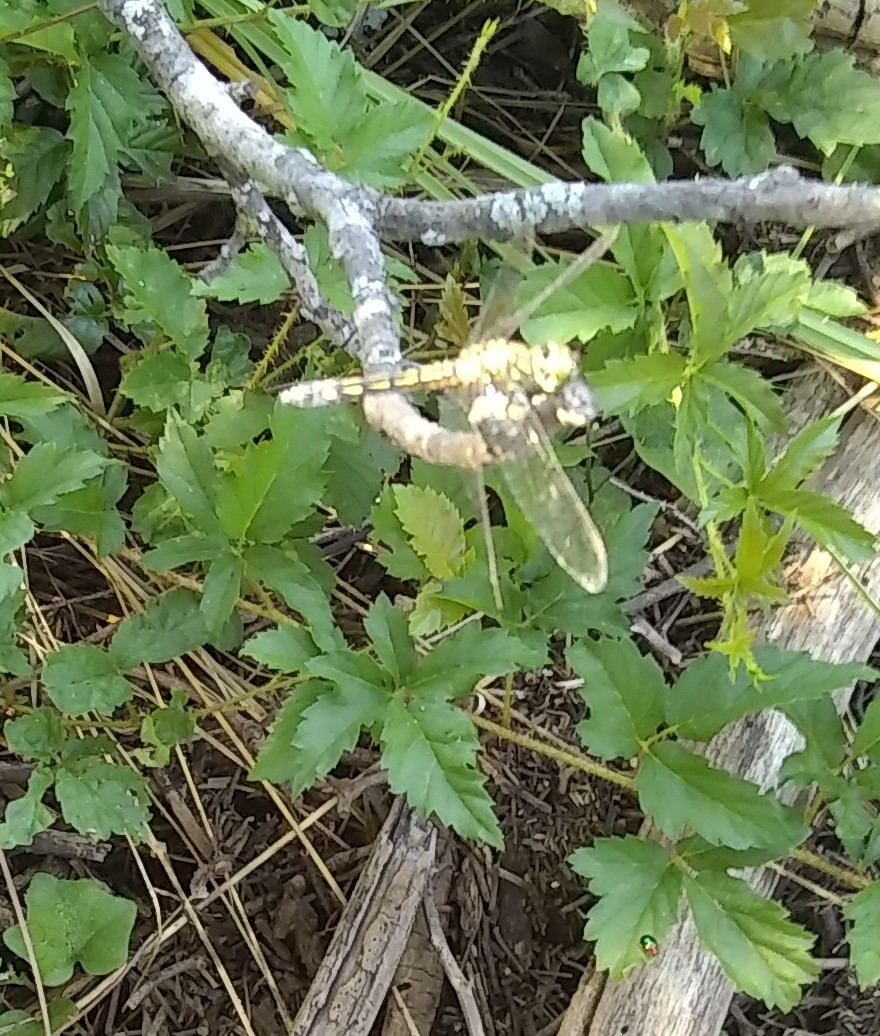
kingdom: Animalia
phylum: Arthropoda
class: Insecta
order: Odonata
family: Libellulidae
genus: Pachydiplax
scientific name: Pachydiplax longipennis
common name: Blue dasher
